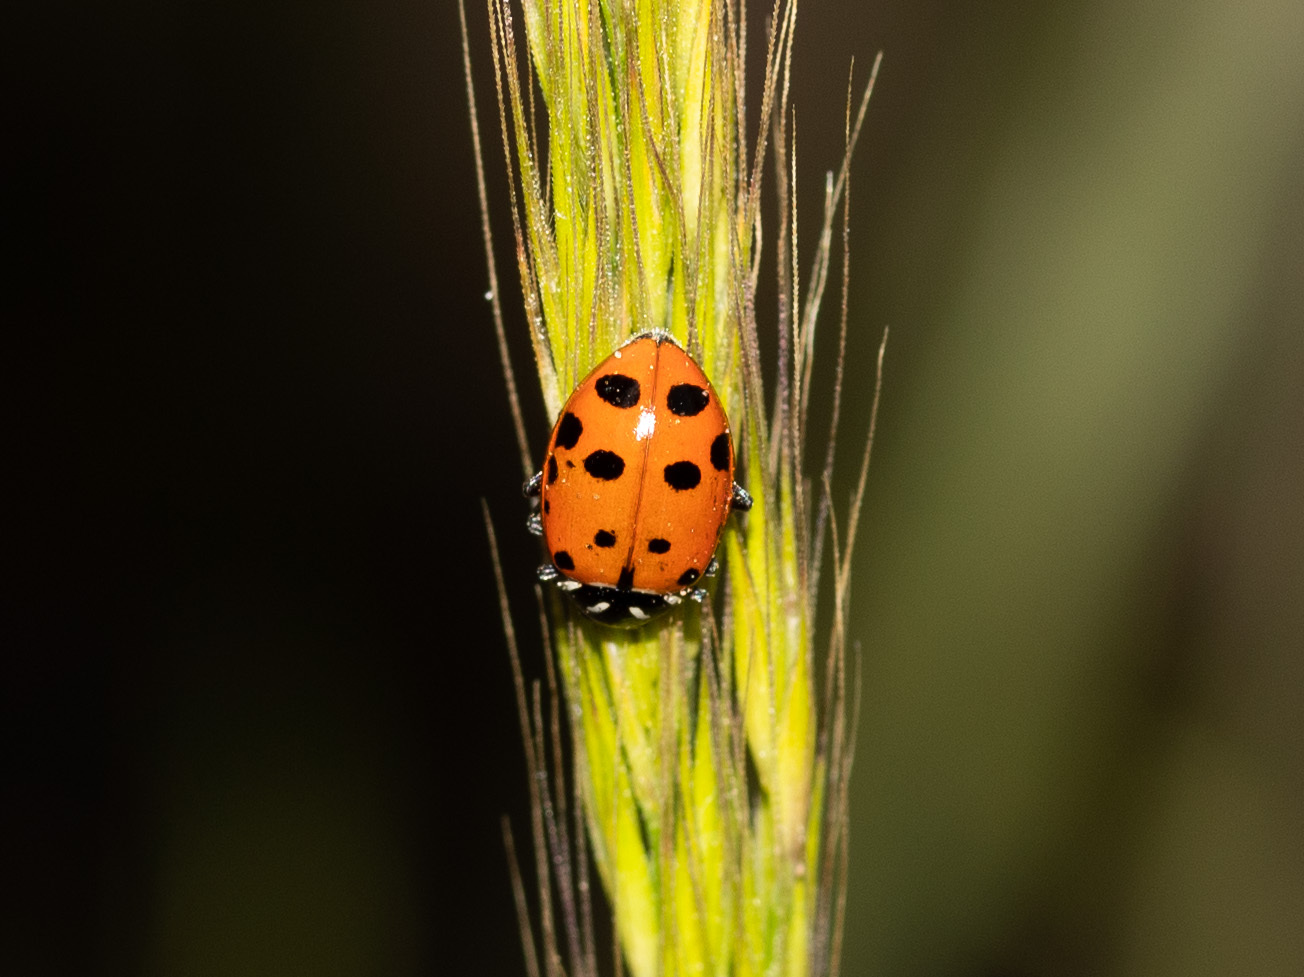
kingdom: Animalia
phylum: Arthropoda
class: Insecta
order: Coleoptera
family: Coccinellidae
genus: Hippodamia
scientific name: Hippodamia convergens
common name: Convergent lady beetle
